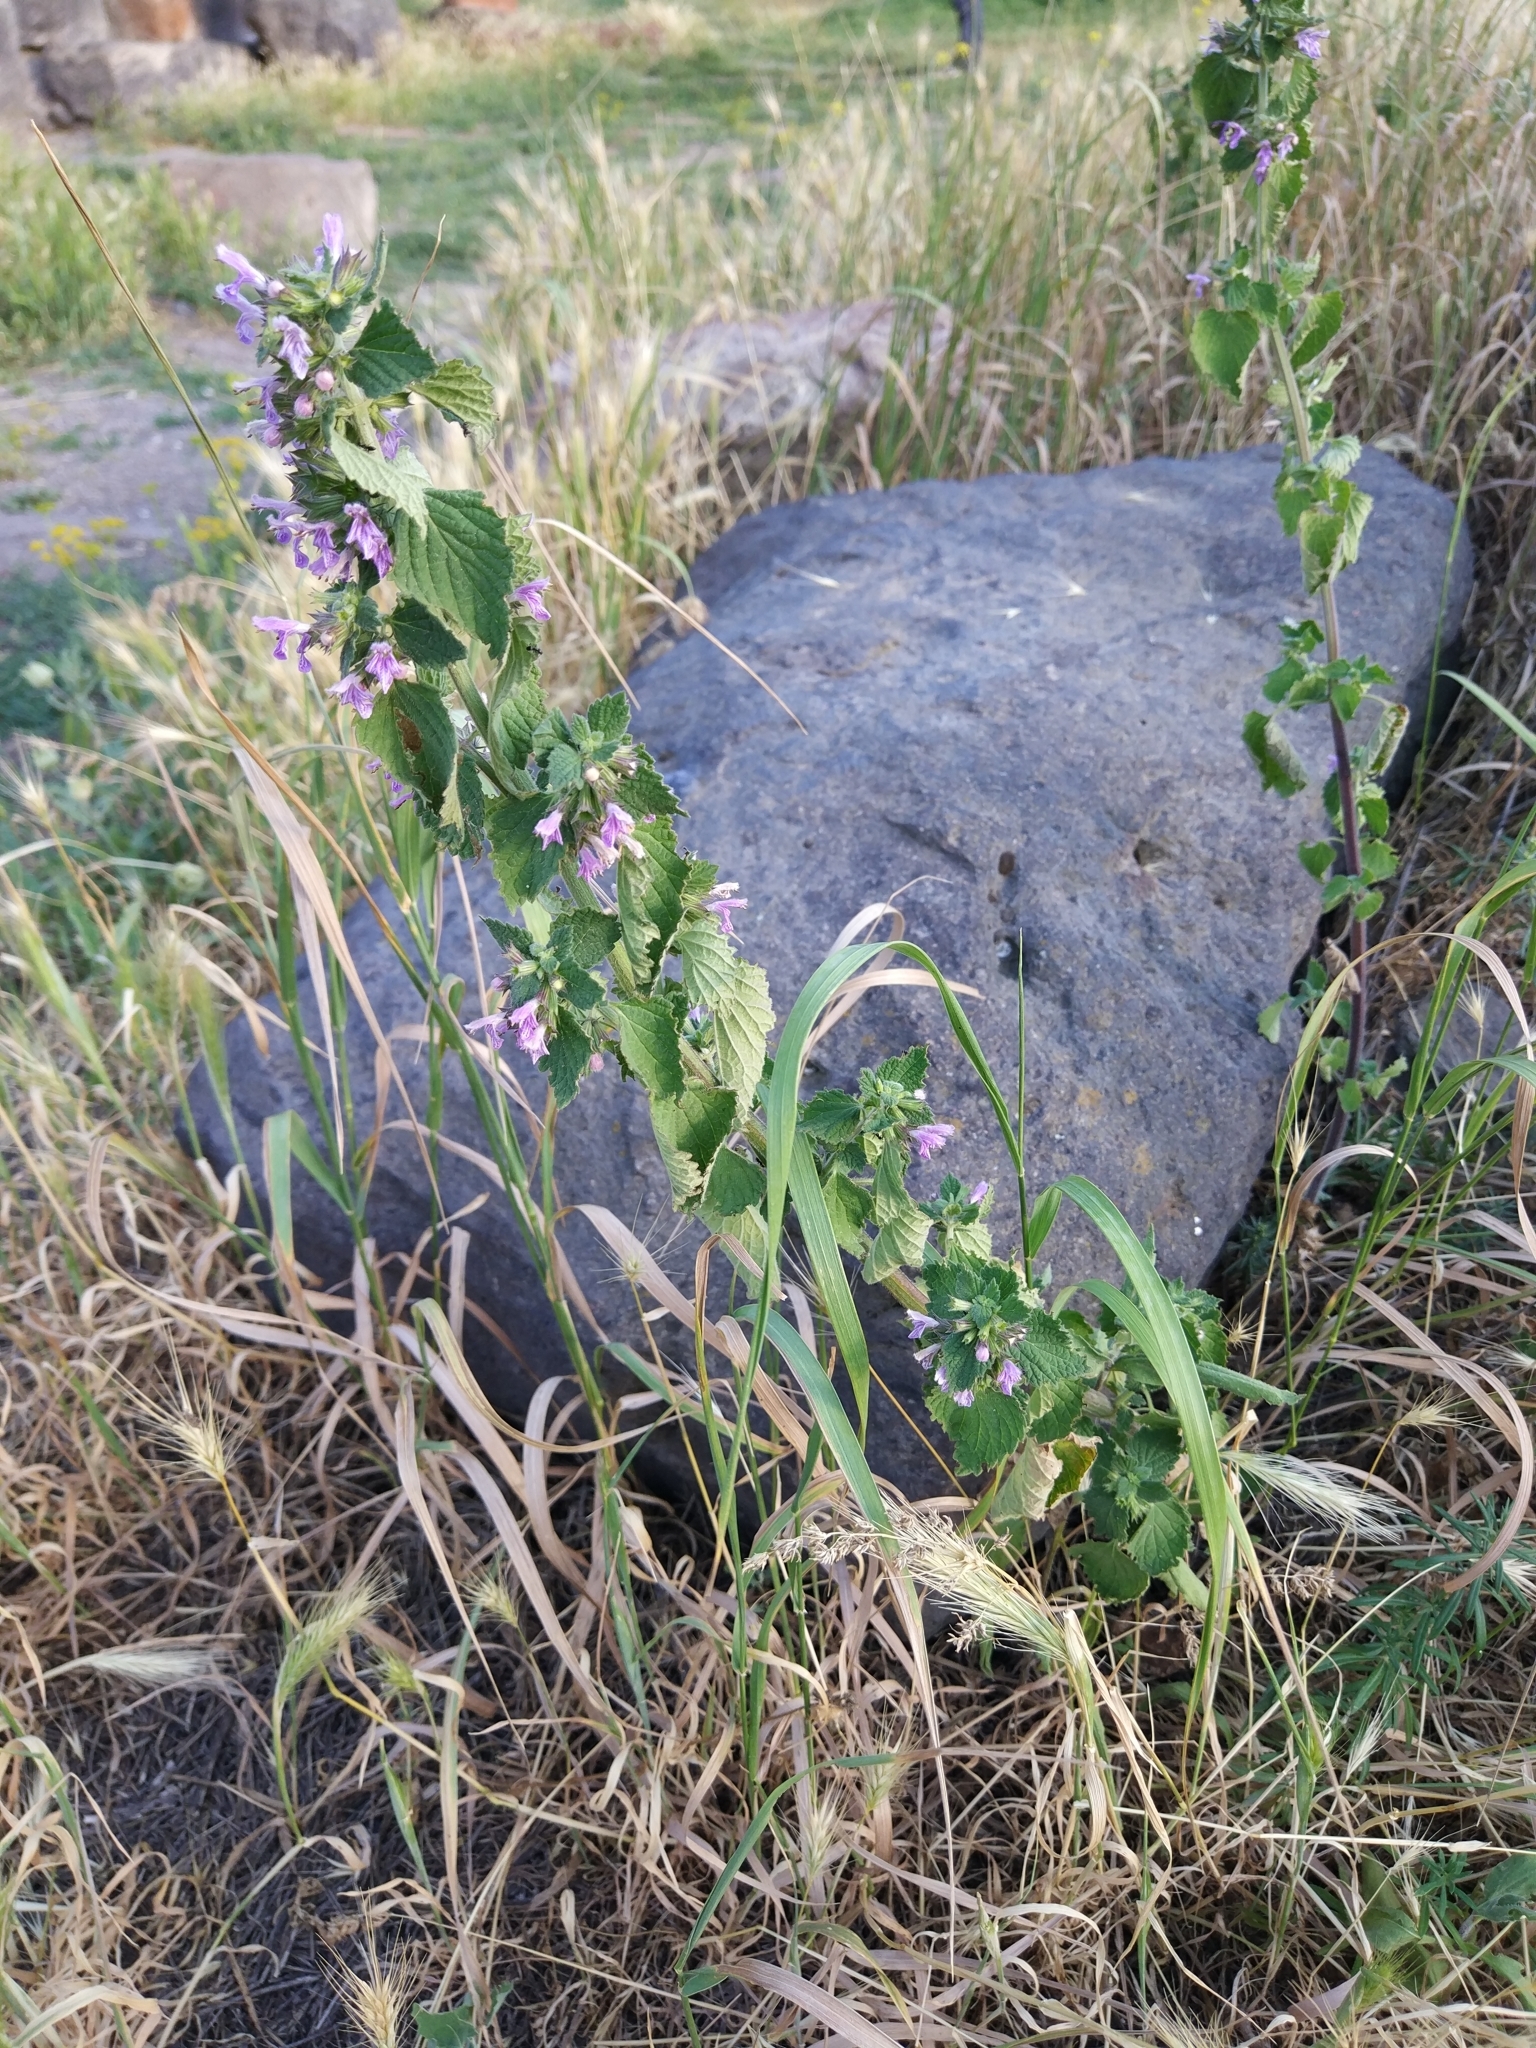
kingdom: Plantae
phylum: Tracheophyta
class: Magnoliopsida
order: Lamiales
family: Lamiaceae
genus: Ballota
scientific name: Ballota nigra
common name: Black horehound
